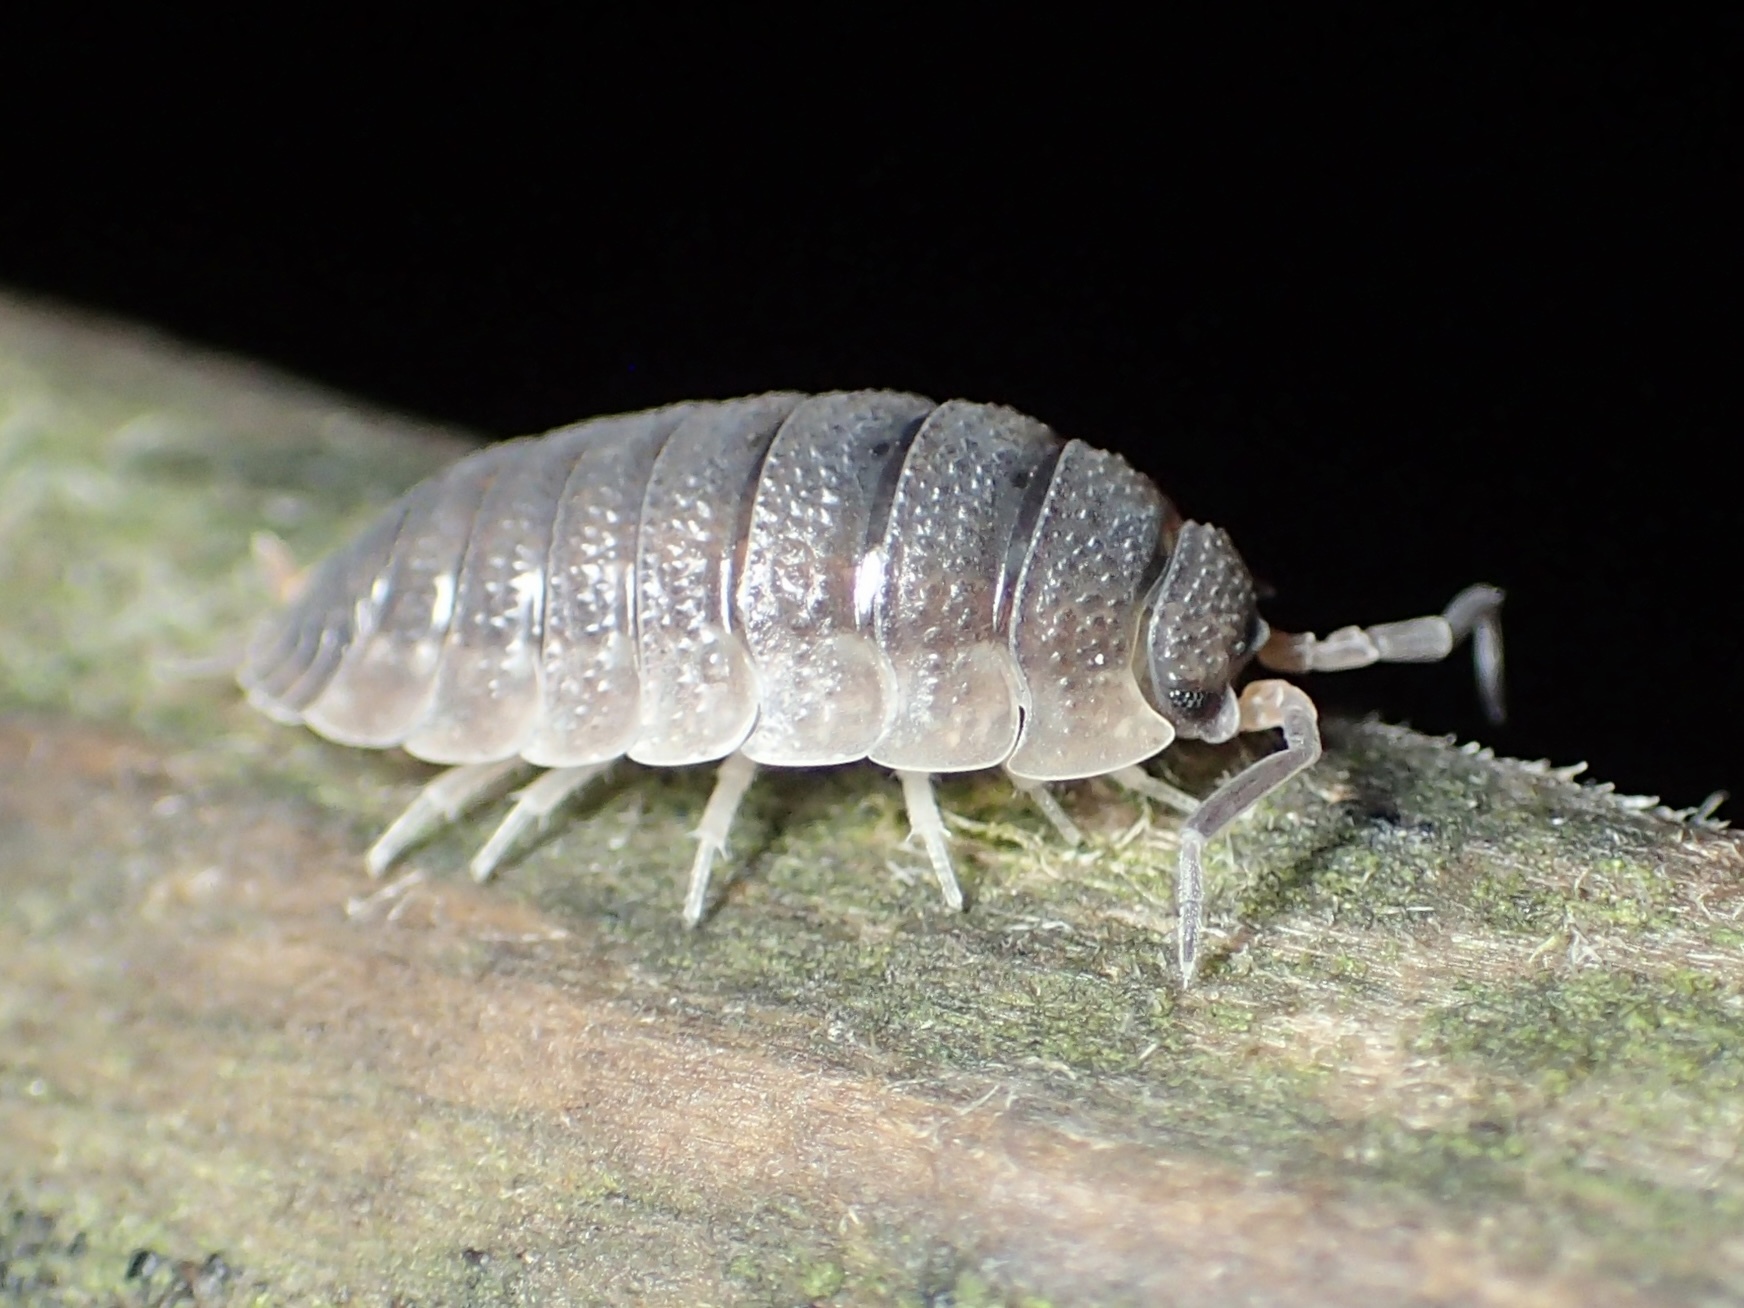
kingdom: Animalia
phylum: Arthropoda
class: Malacostraca
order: Isopoda
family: Porcellionidae
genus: Porcellio
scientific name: Porcellio scaber
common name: Common rough woodlouse
